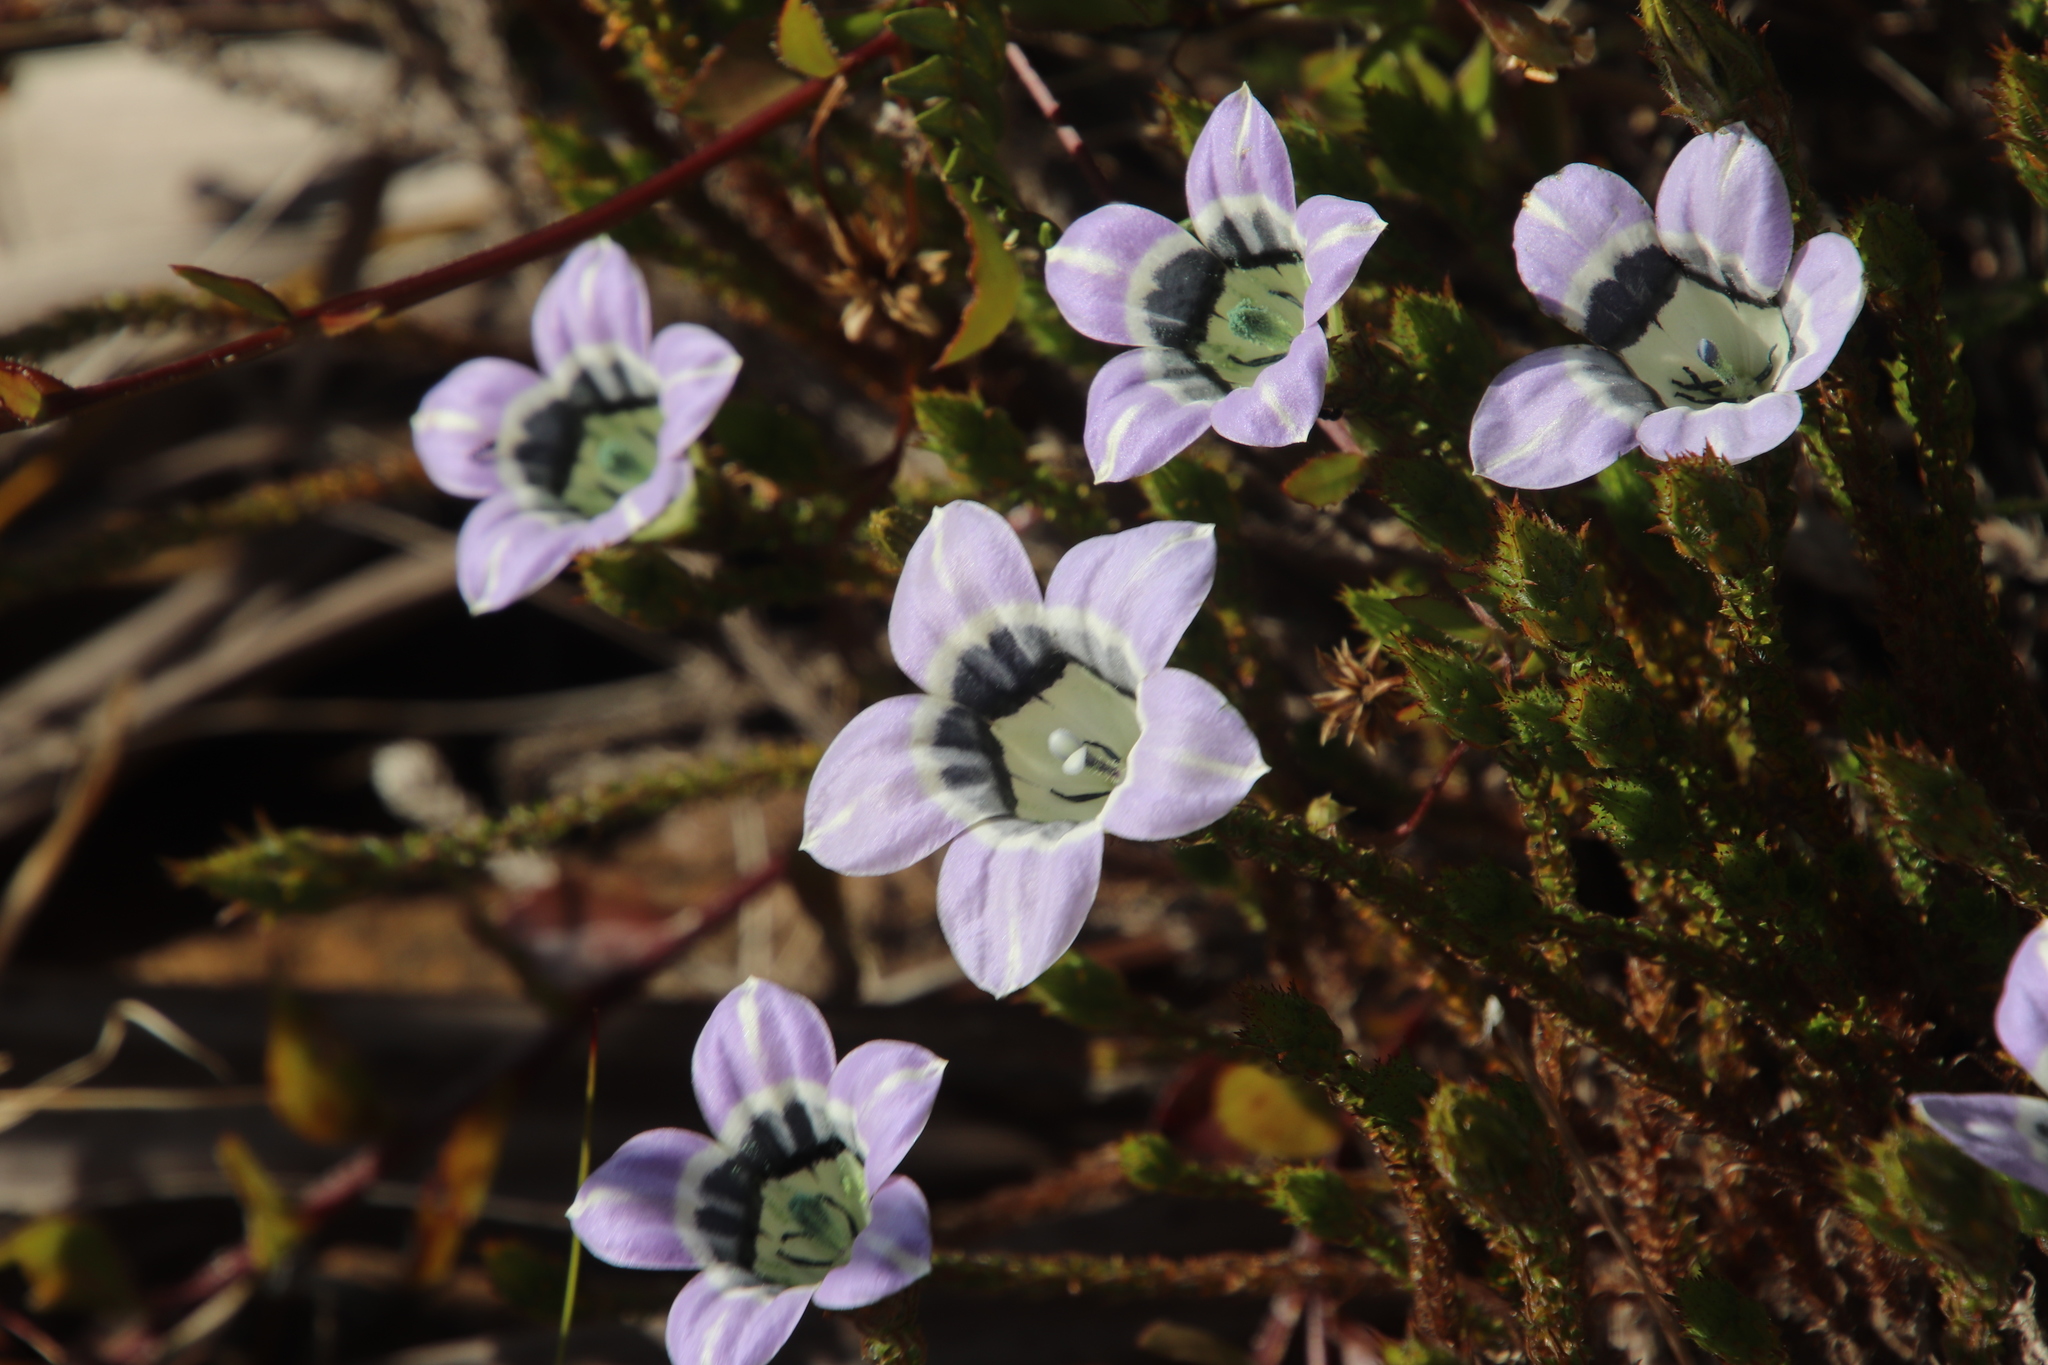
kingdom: Plantae
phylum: Tracheophyta
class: Magnoliopsida
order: Asterales
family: Campanulaceae
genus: Roella
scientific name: Roella ciliata
